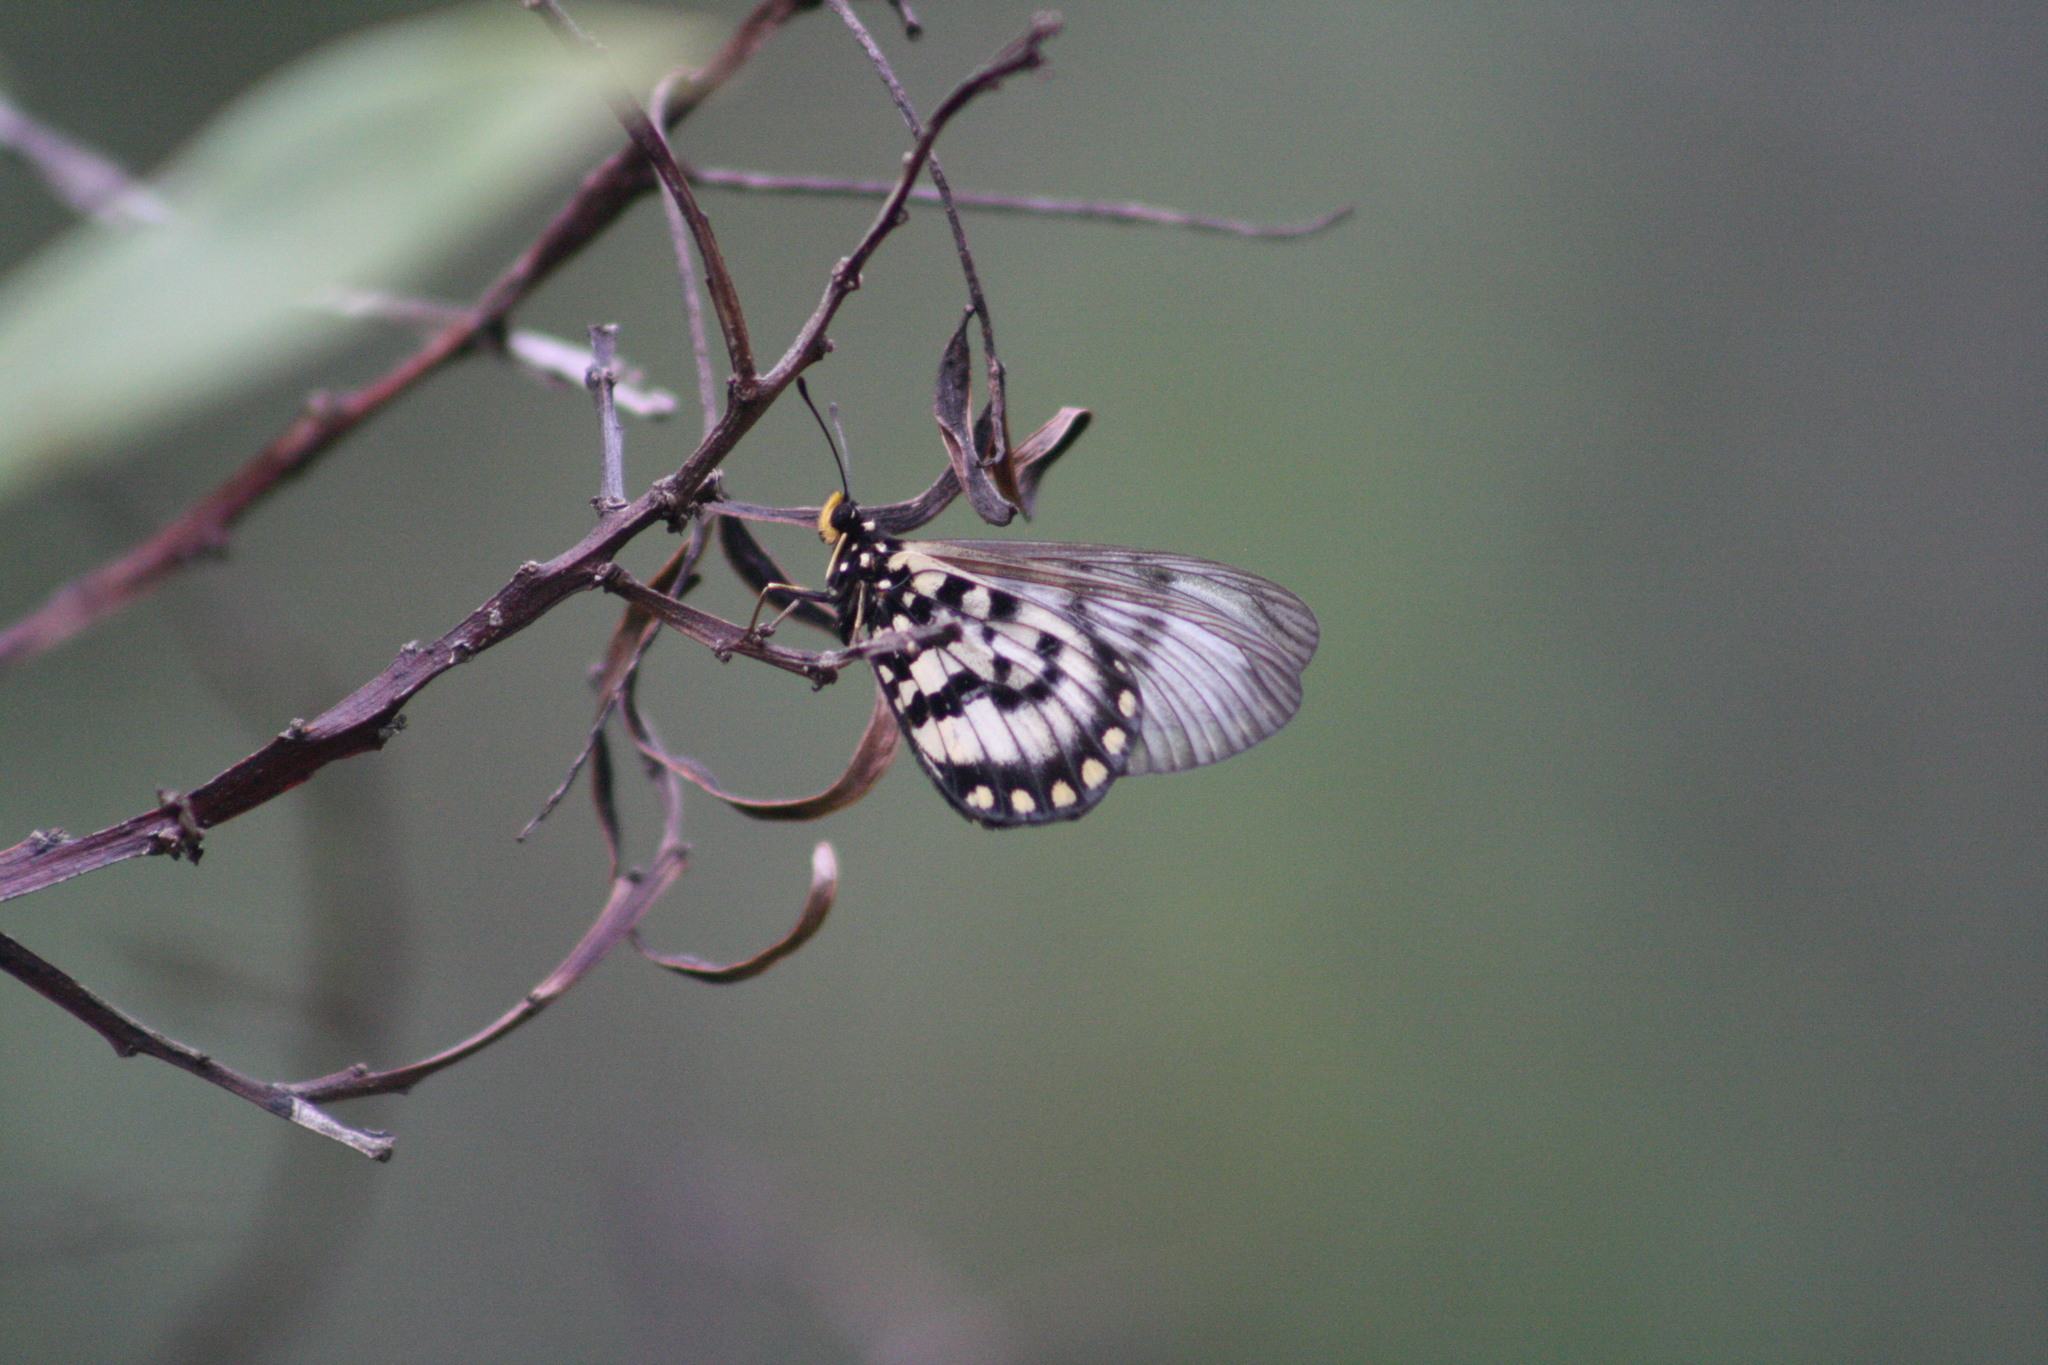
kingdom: Animalia
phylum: Arthropoda
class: Insecta
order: Lepidoptera
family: Nymphalidae
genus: Acraea
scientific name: Acraea andromacha
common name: Glasswing
